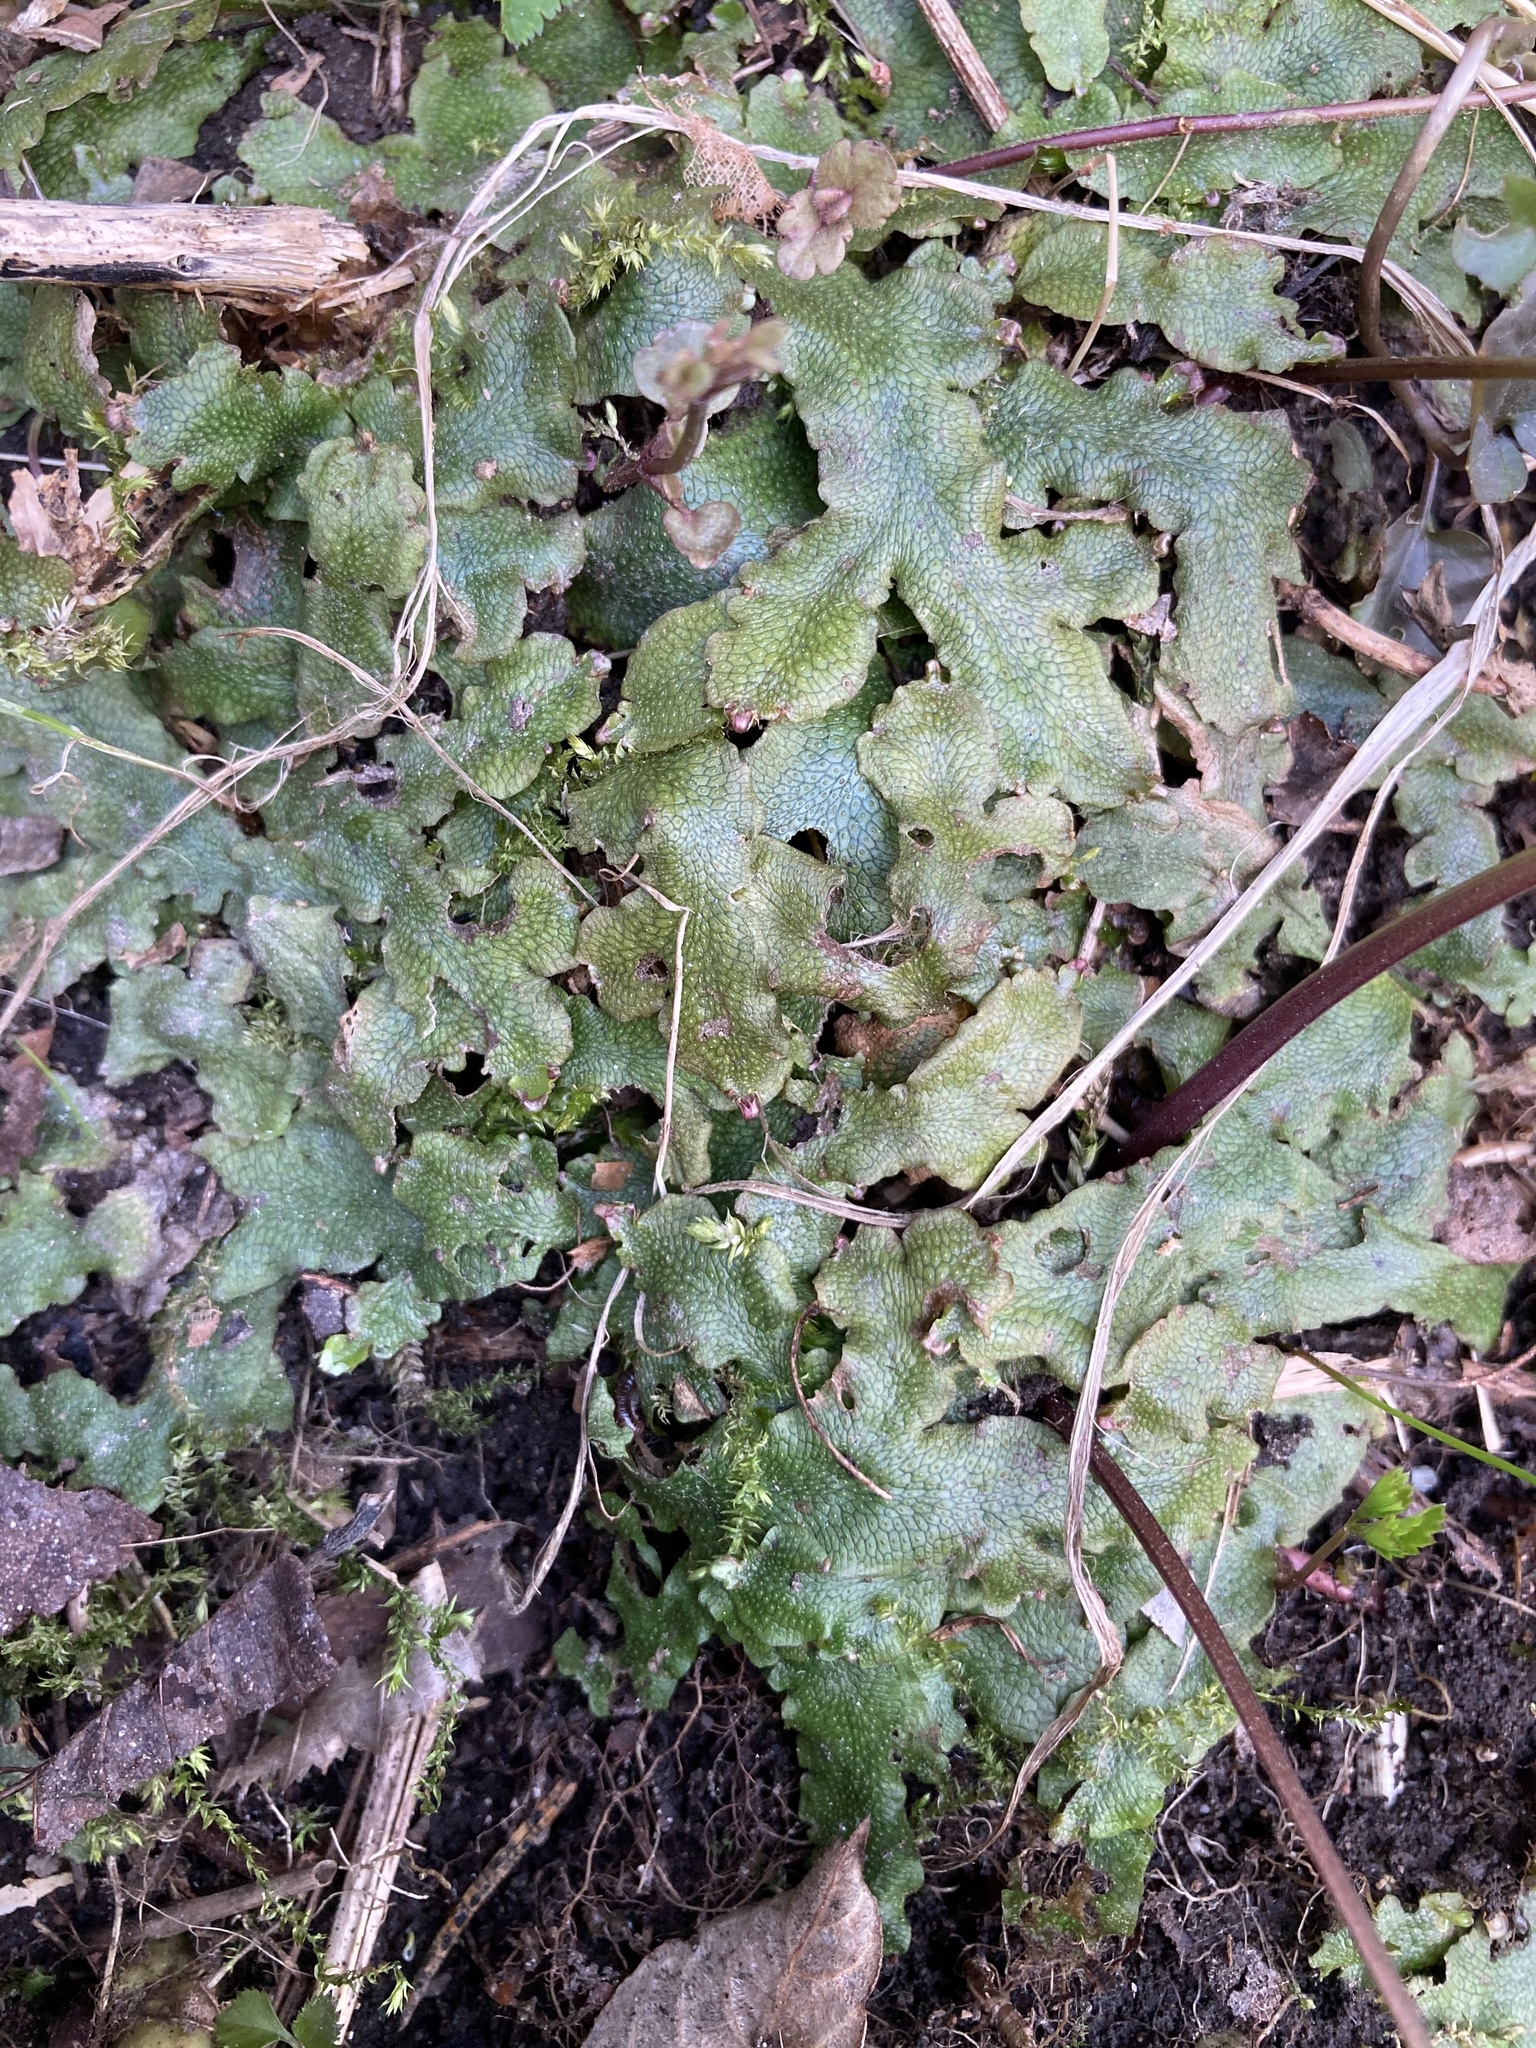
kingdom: Plantae
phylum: Marchantiophyta
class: Marchantiopsida
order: Marchantiales
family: Conocephalaceae
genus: Conocephalum
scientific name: Conocephalum salebrosum
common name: Cat-tongue liverwort
